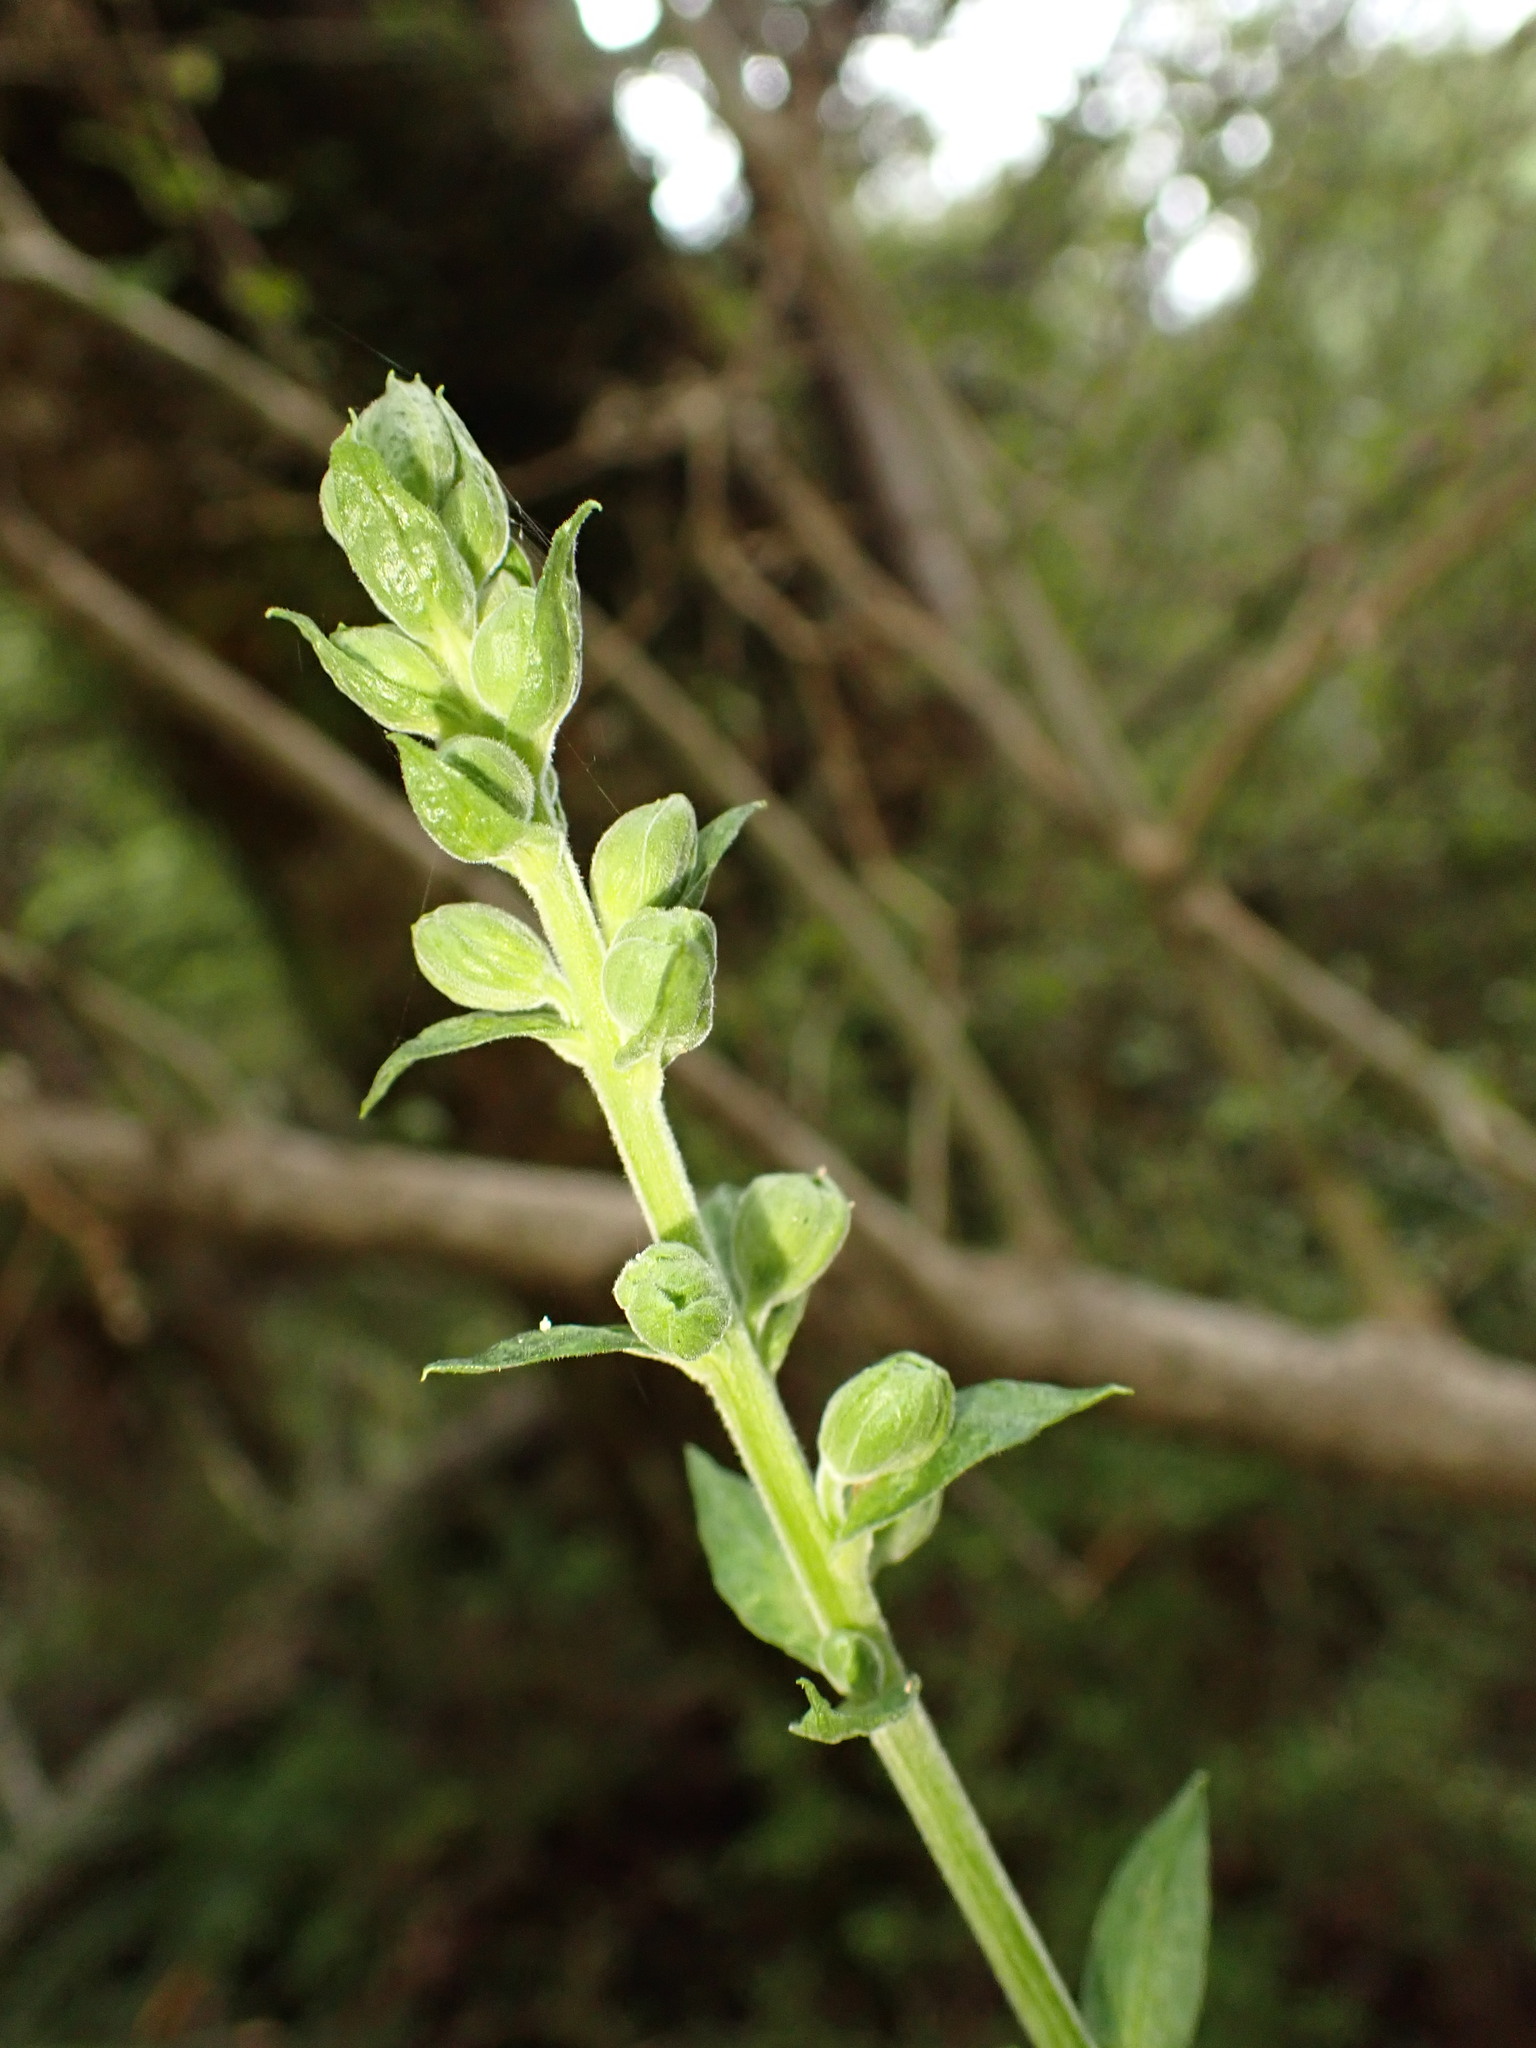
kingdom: Plantae
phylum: Tracheophyta
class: Magnoliopsida
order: Lamiales
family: Plantaginaceae
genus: Digitalis
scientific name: Digitalis purpurea
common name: Foxglove
